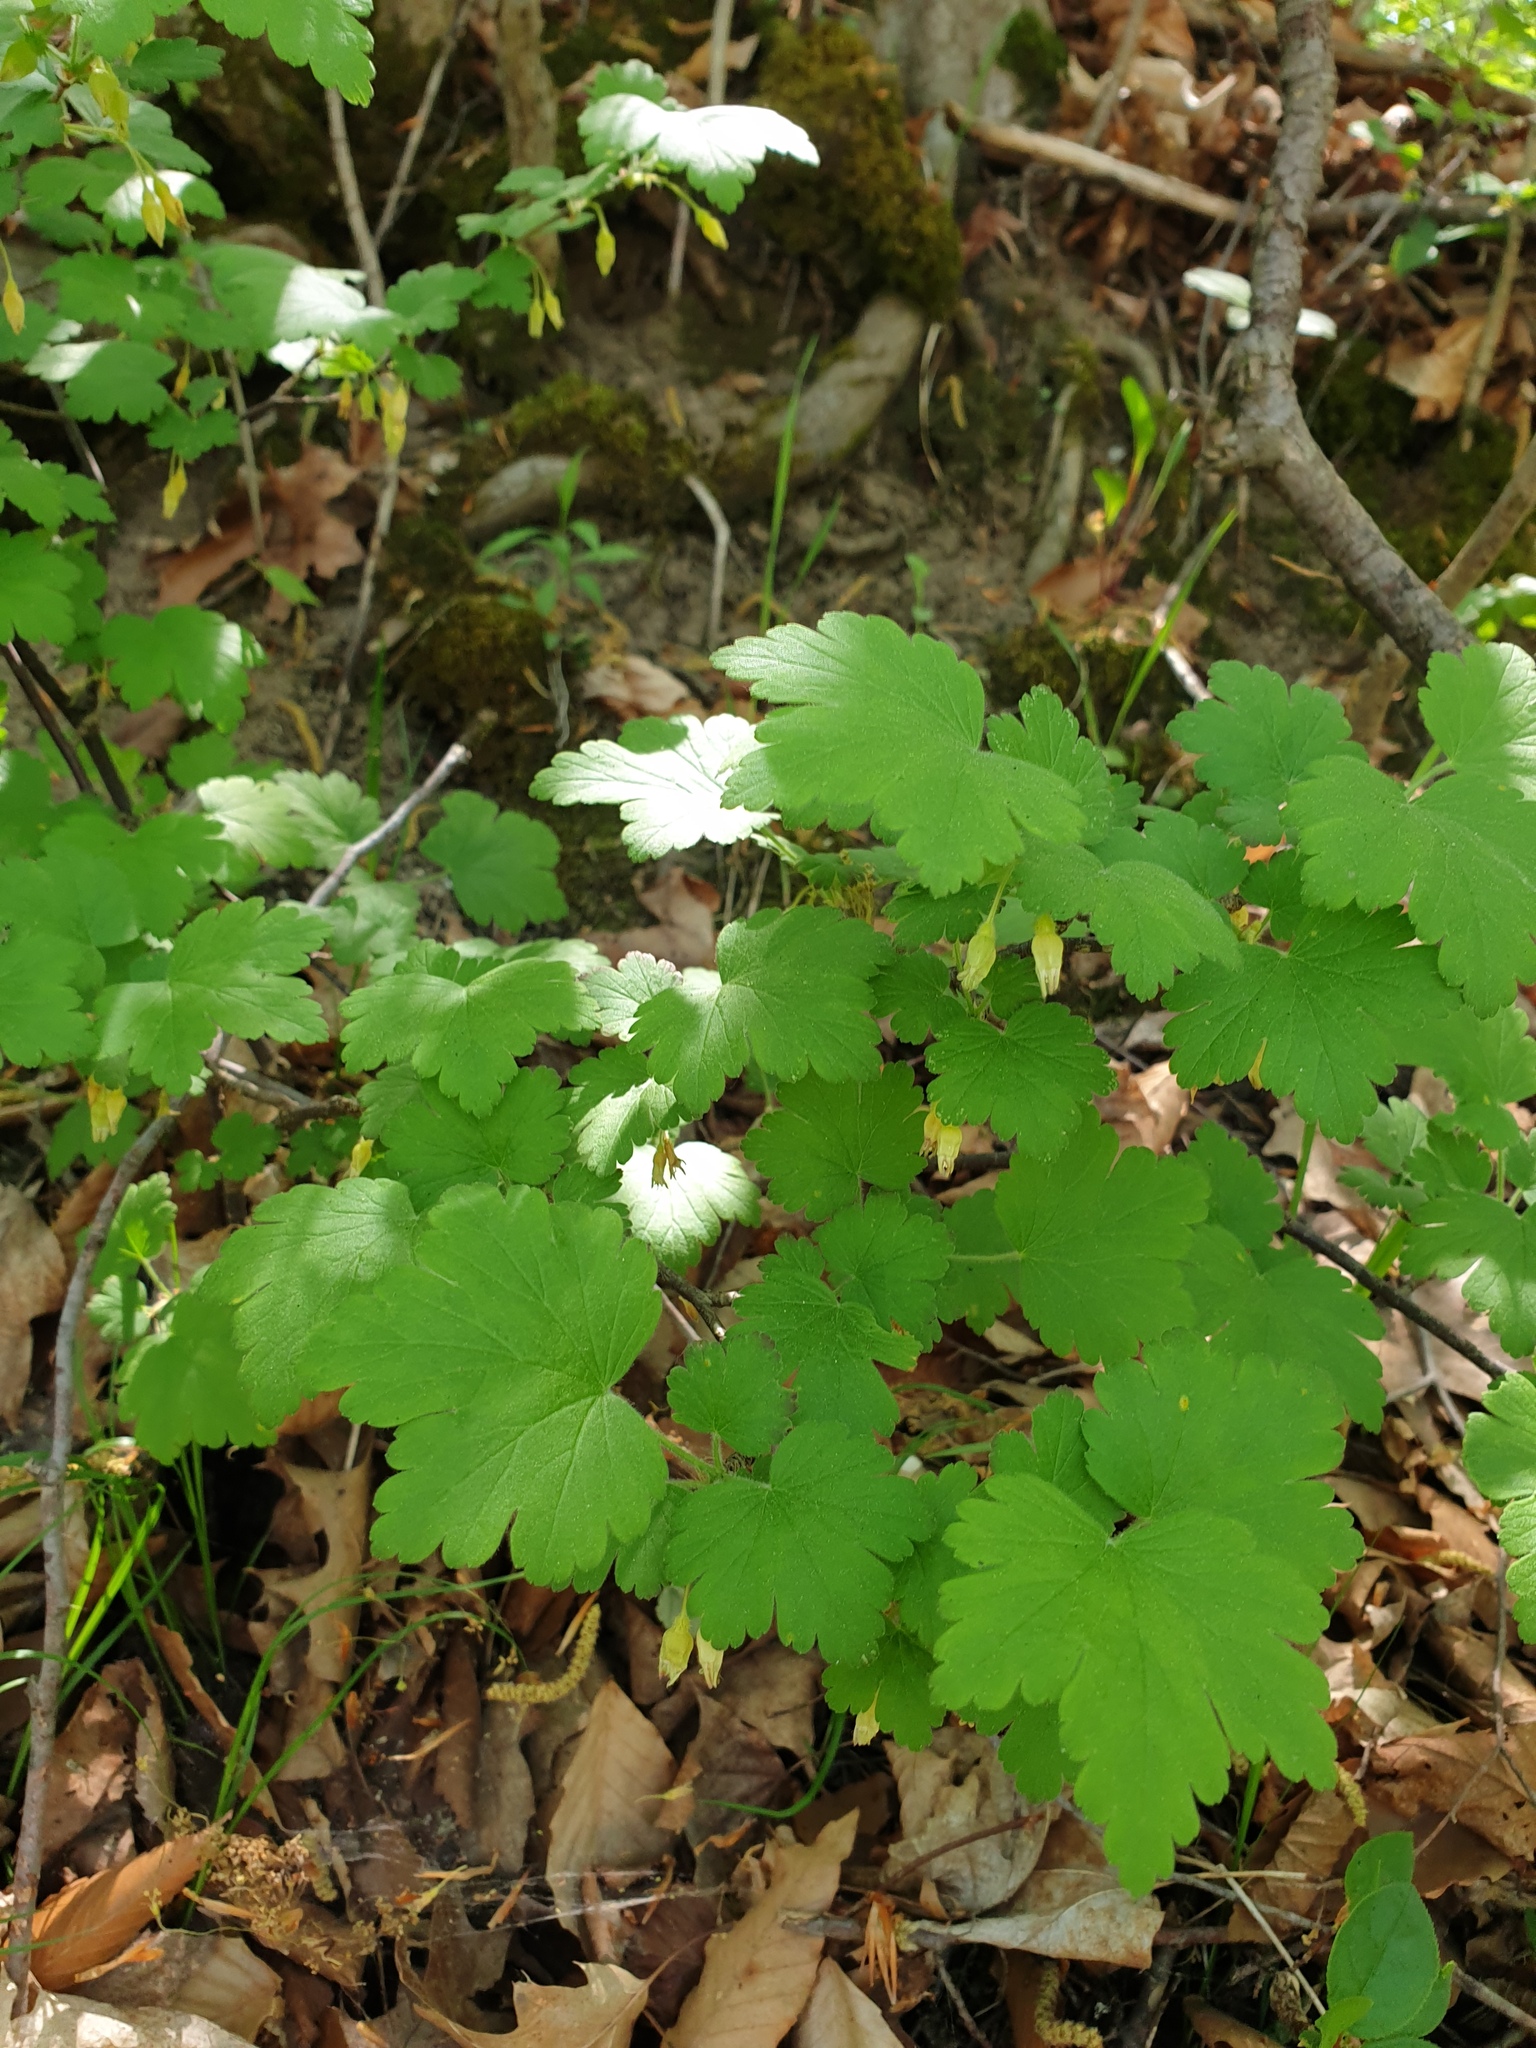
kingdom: Plantae
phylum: Tracheophyta
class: Magnoliopsida
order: Saxifragales
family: Grossulariaceae
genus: Ribes
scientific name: Ribes cynosbati
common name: American gooseberry
